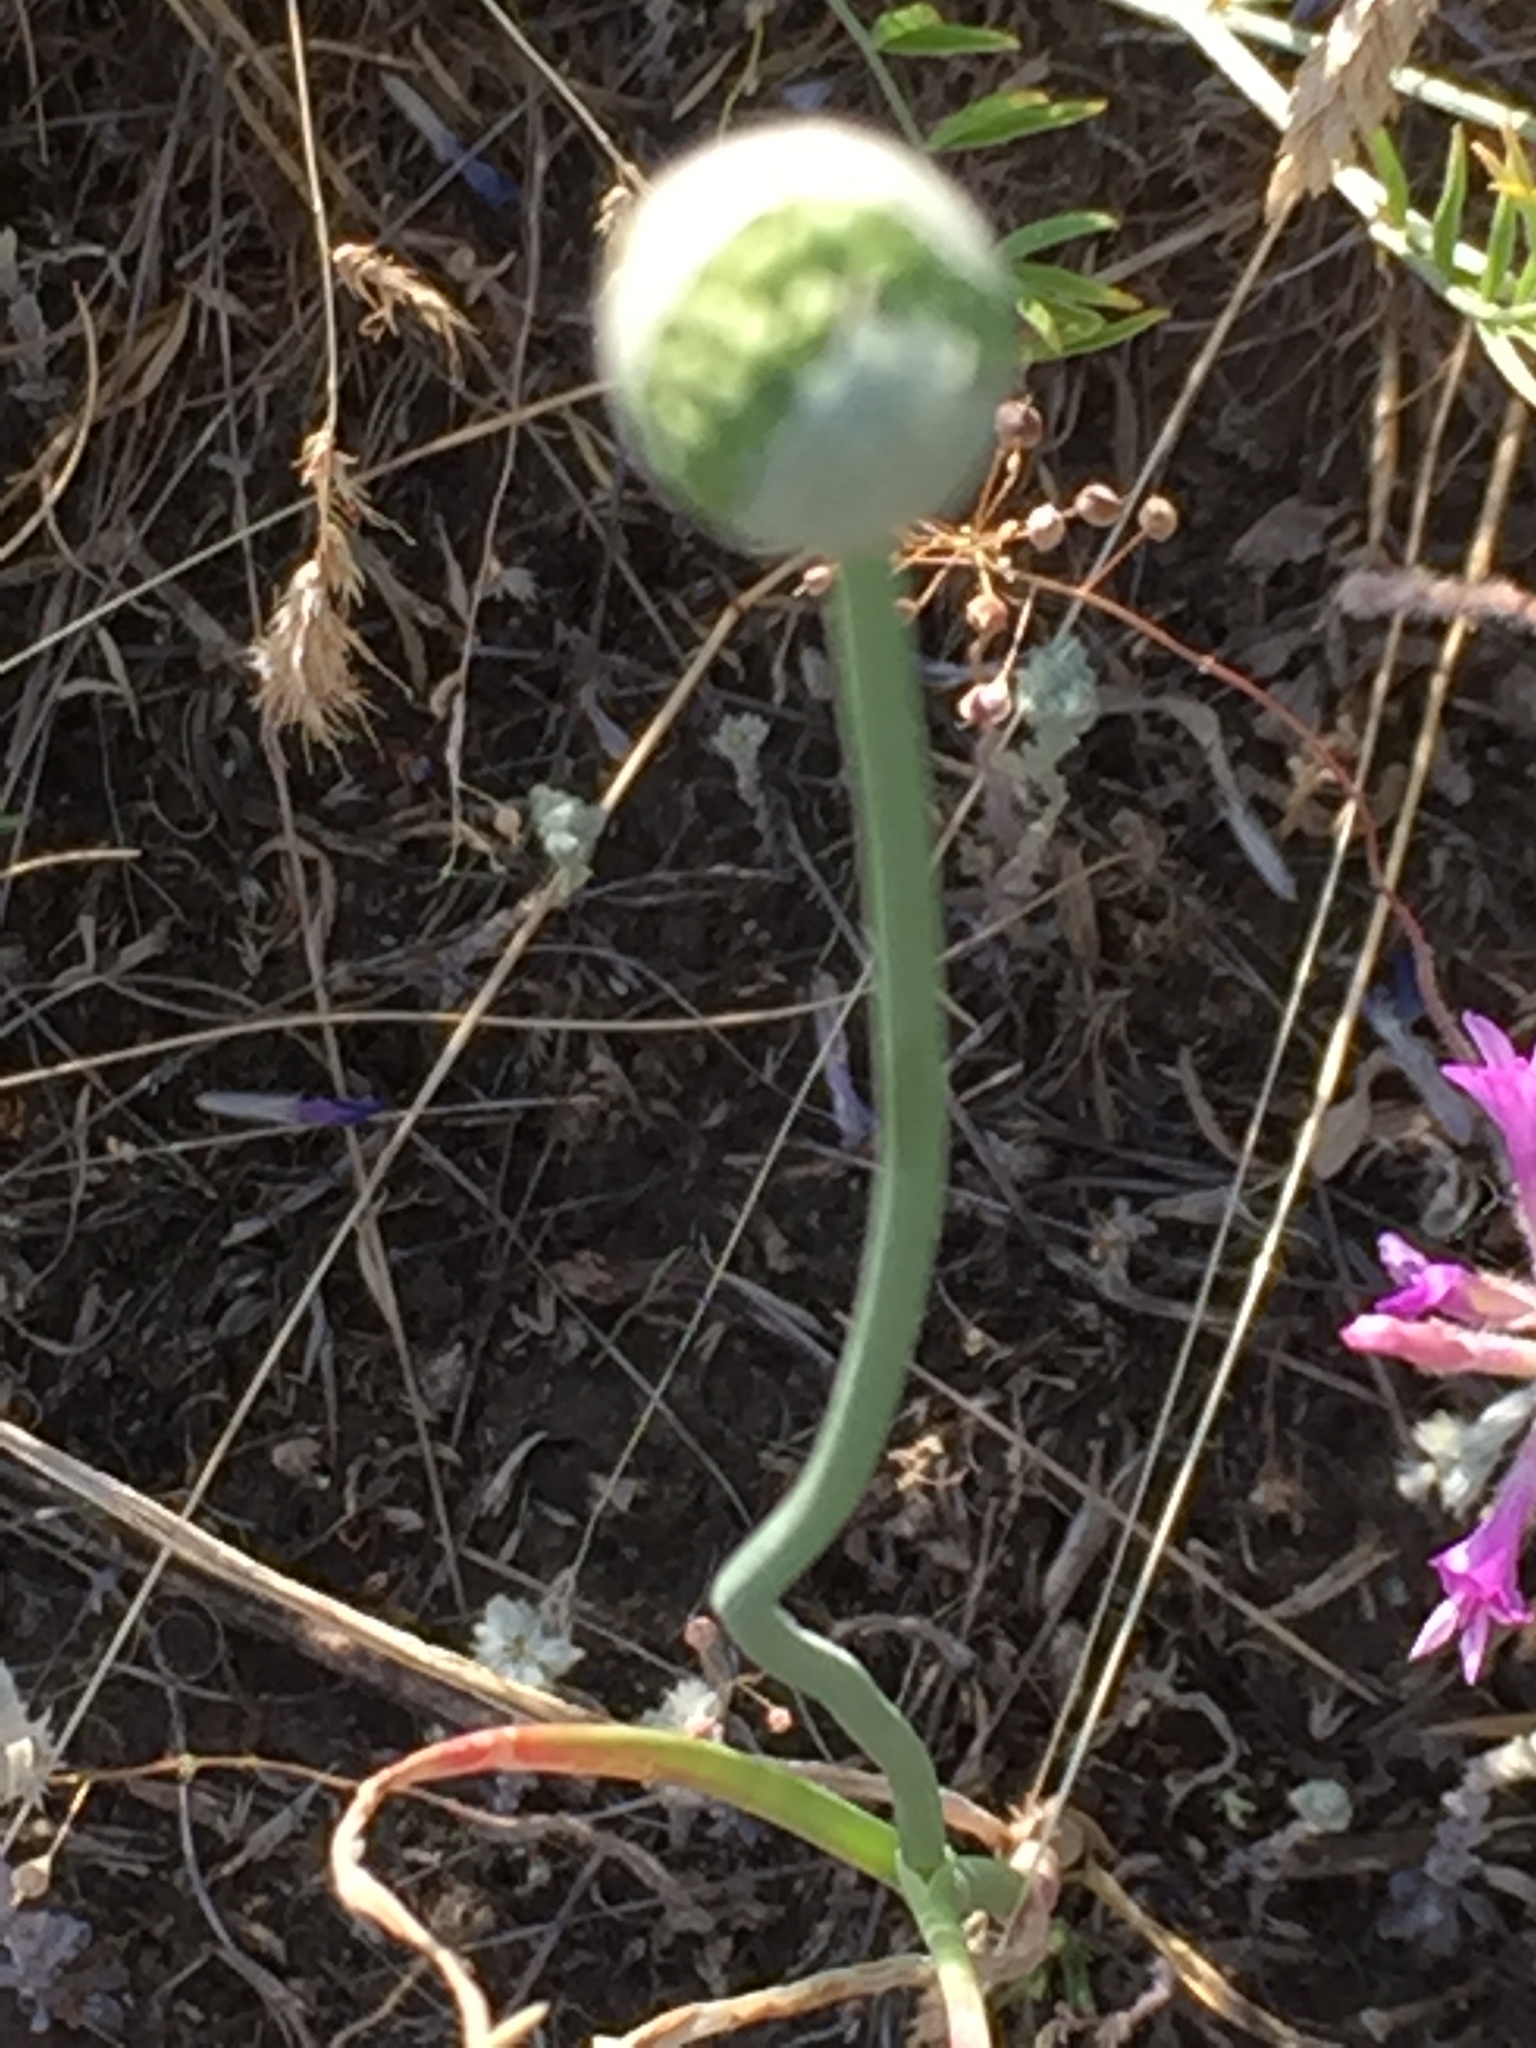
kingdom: Plantae
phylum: Tracheophyta
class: Liliopsida
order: Asparagales
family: Amaryllidaceae
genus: Allium
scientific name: Allium sphaerocephalon
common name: Round-headed leek
